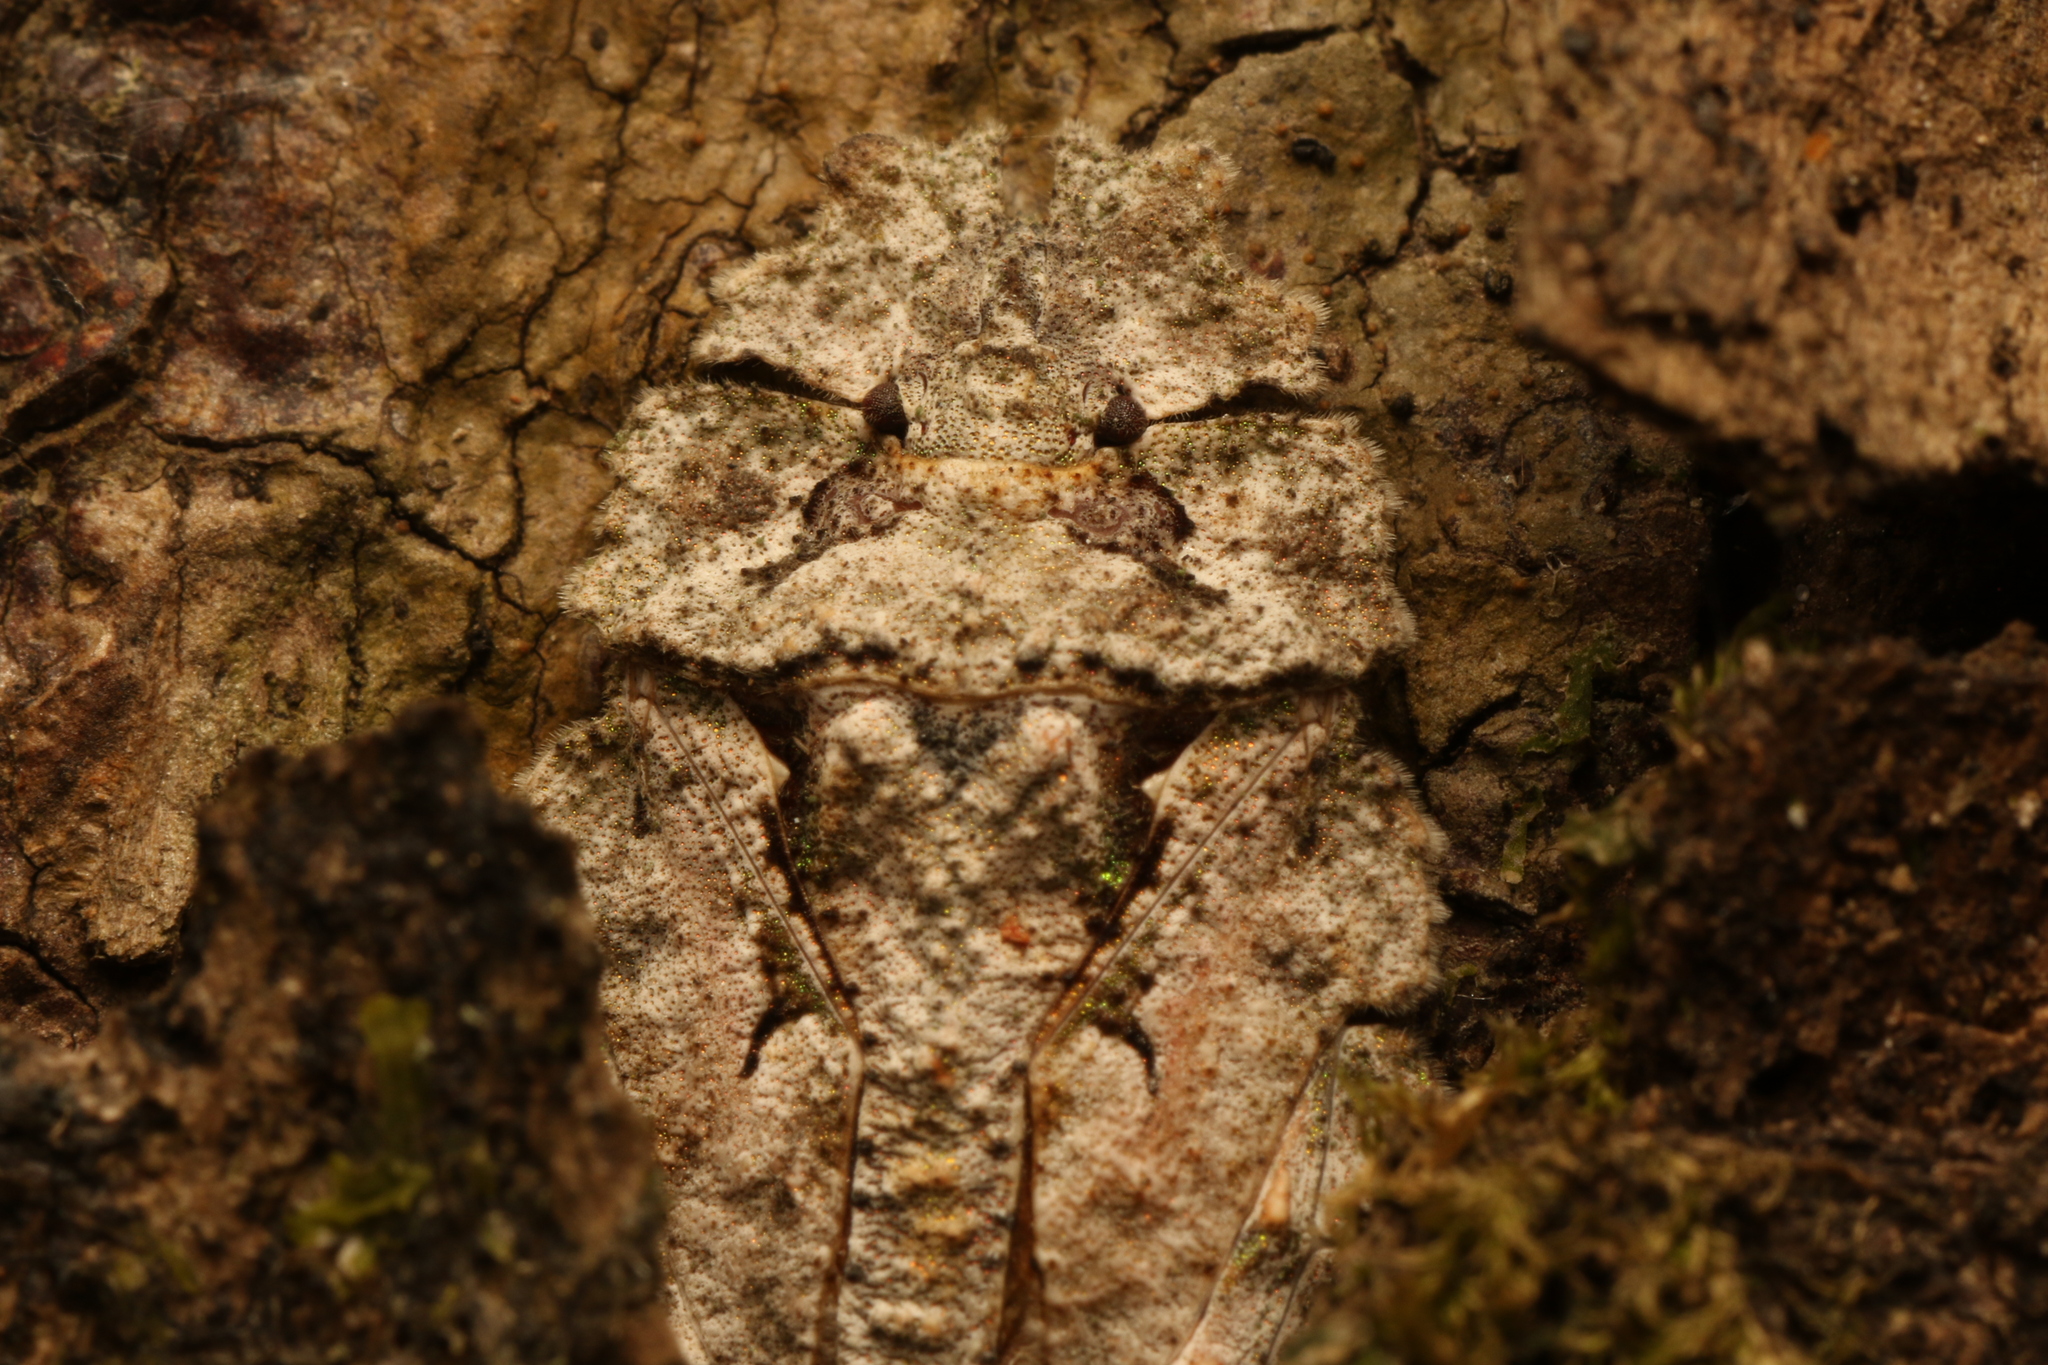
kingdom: Animalia
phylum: Arthropoda
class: Insecta
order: Hemiptera
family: Phloeidae
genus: Phloeophana
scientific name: Phloeophana longirostris
